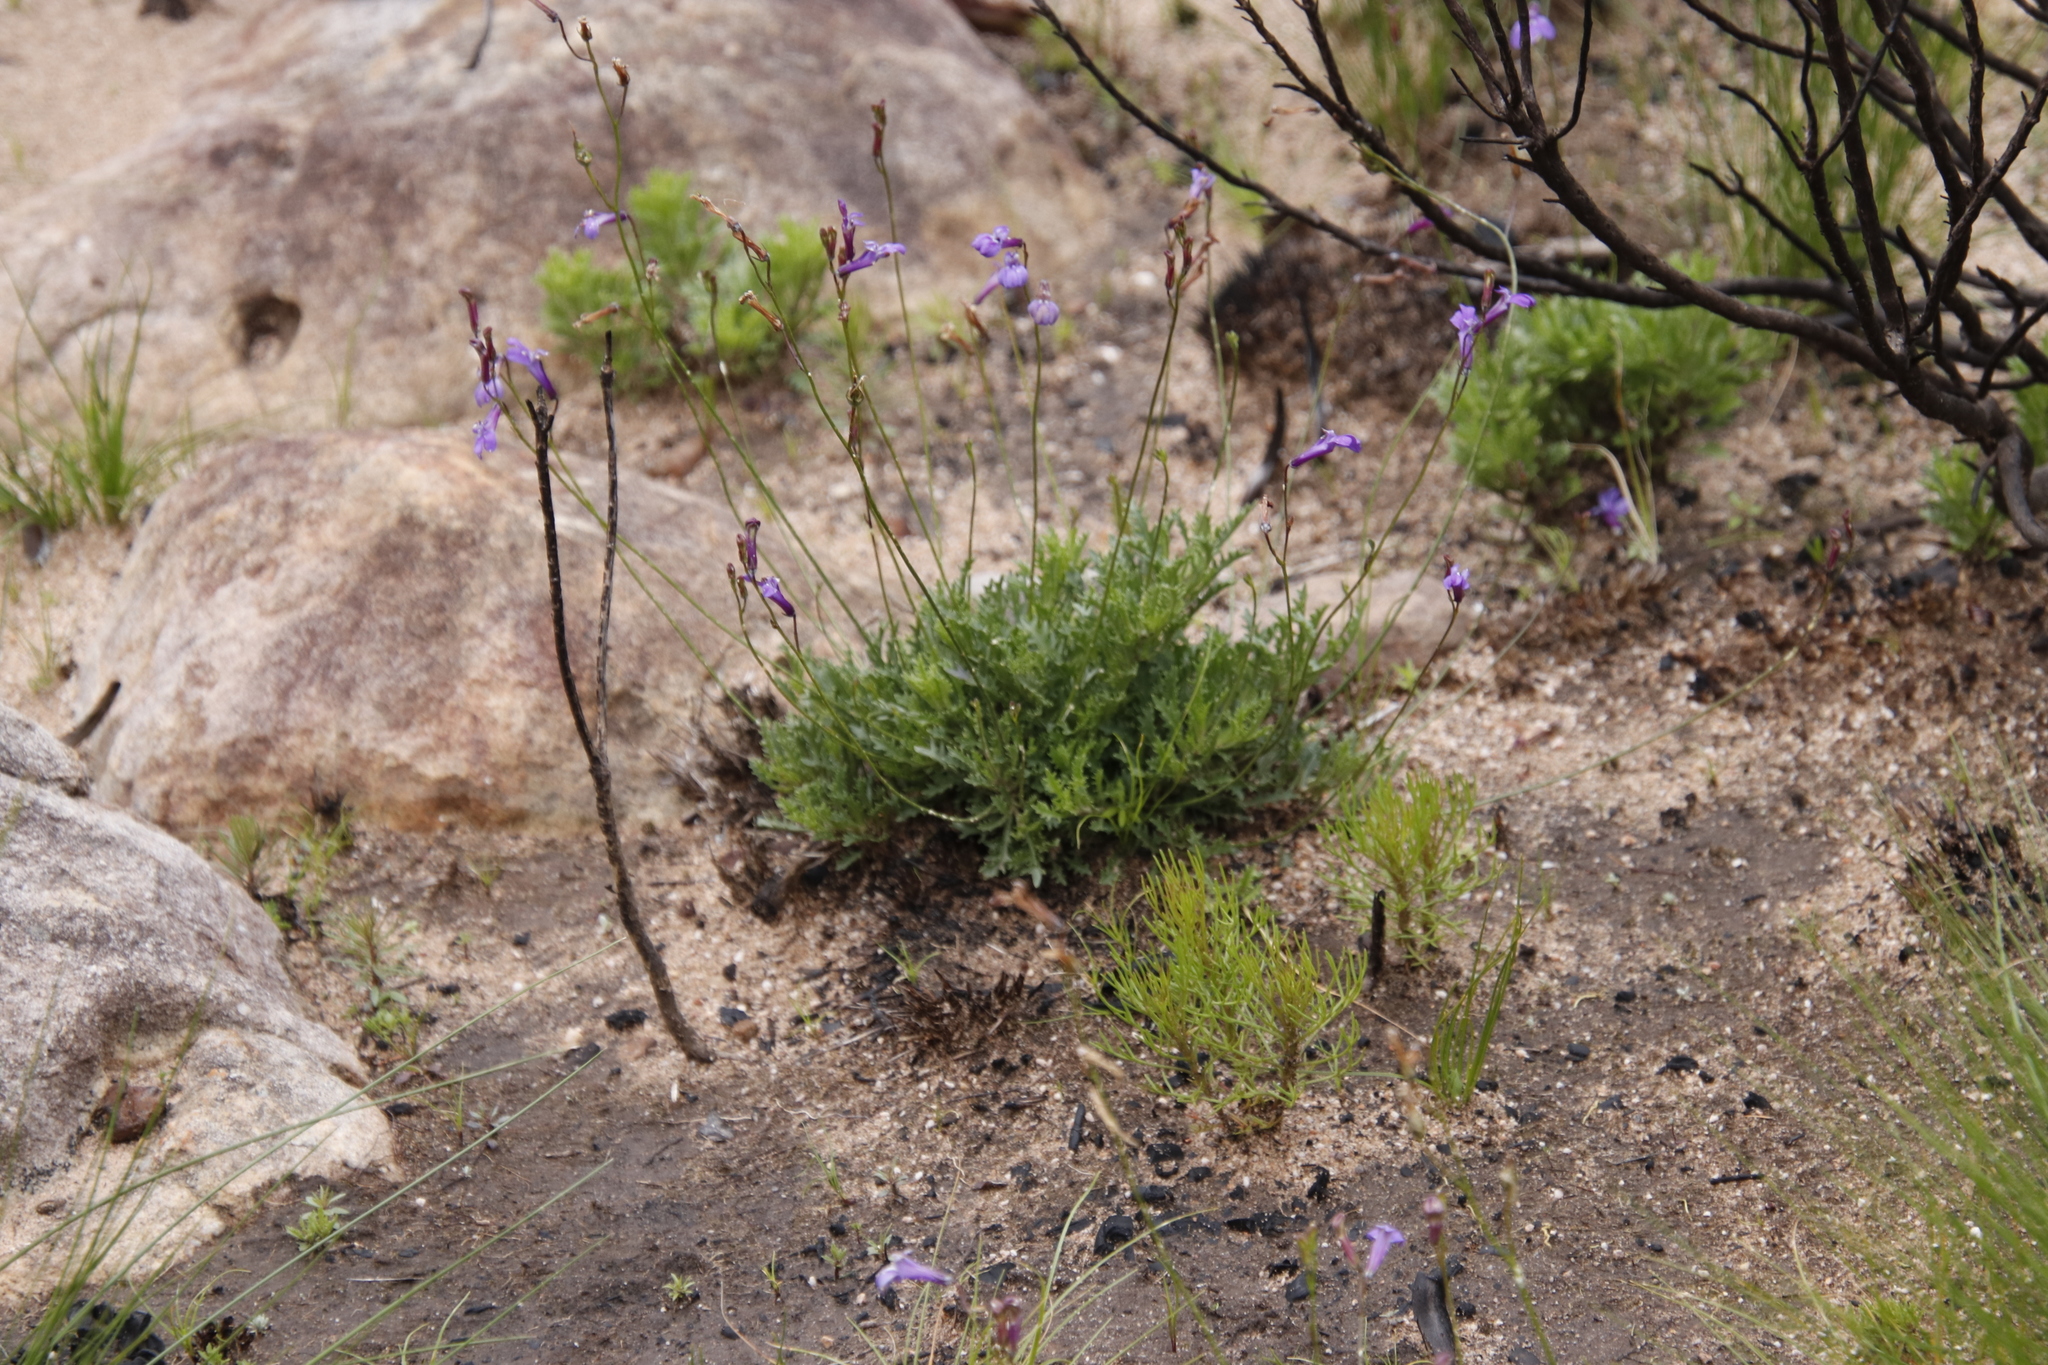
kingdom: Plantae
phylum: Tracheophyta
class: Magnoliopsida
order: Asterales
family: Campanulaceae
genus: Lobelia
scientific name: Lobelia coronopifolia
